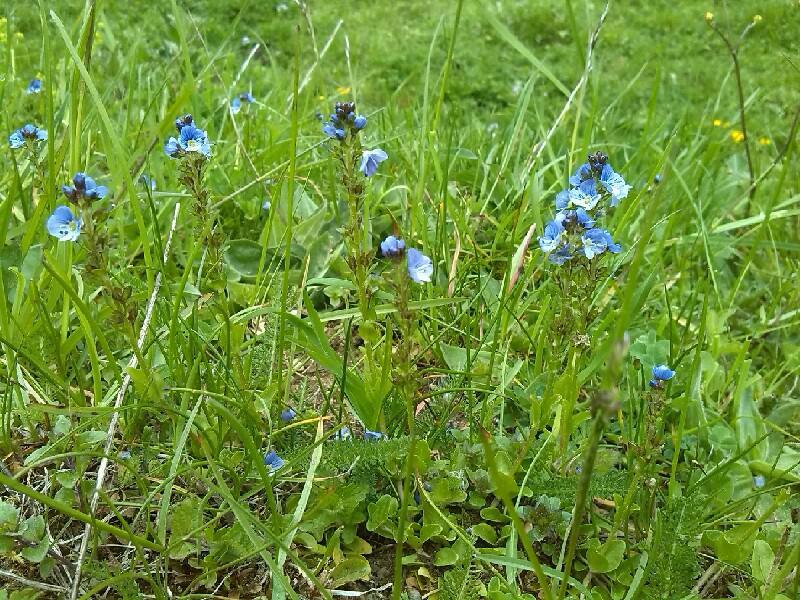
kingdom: Plantae
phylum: Tracheophyta
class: Magnoliopsida
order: Lamiales
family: Plantaginaceae
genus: Veronica
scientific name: Veronica serpyllifolia
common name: Thyme-leaved speedwell
